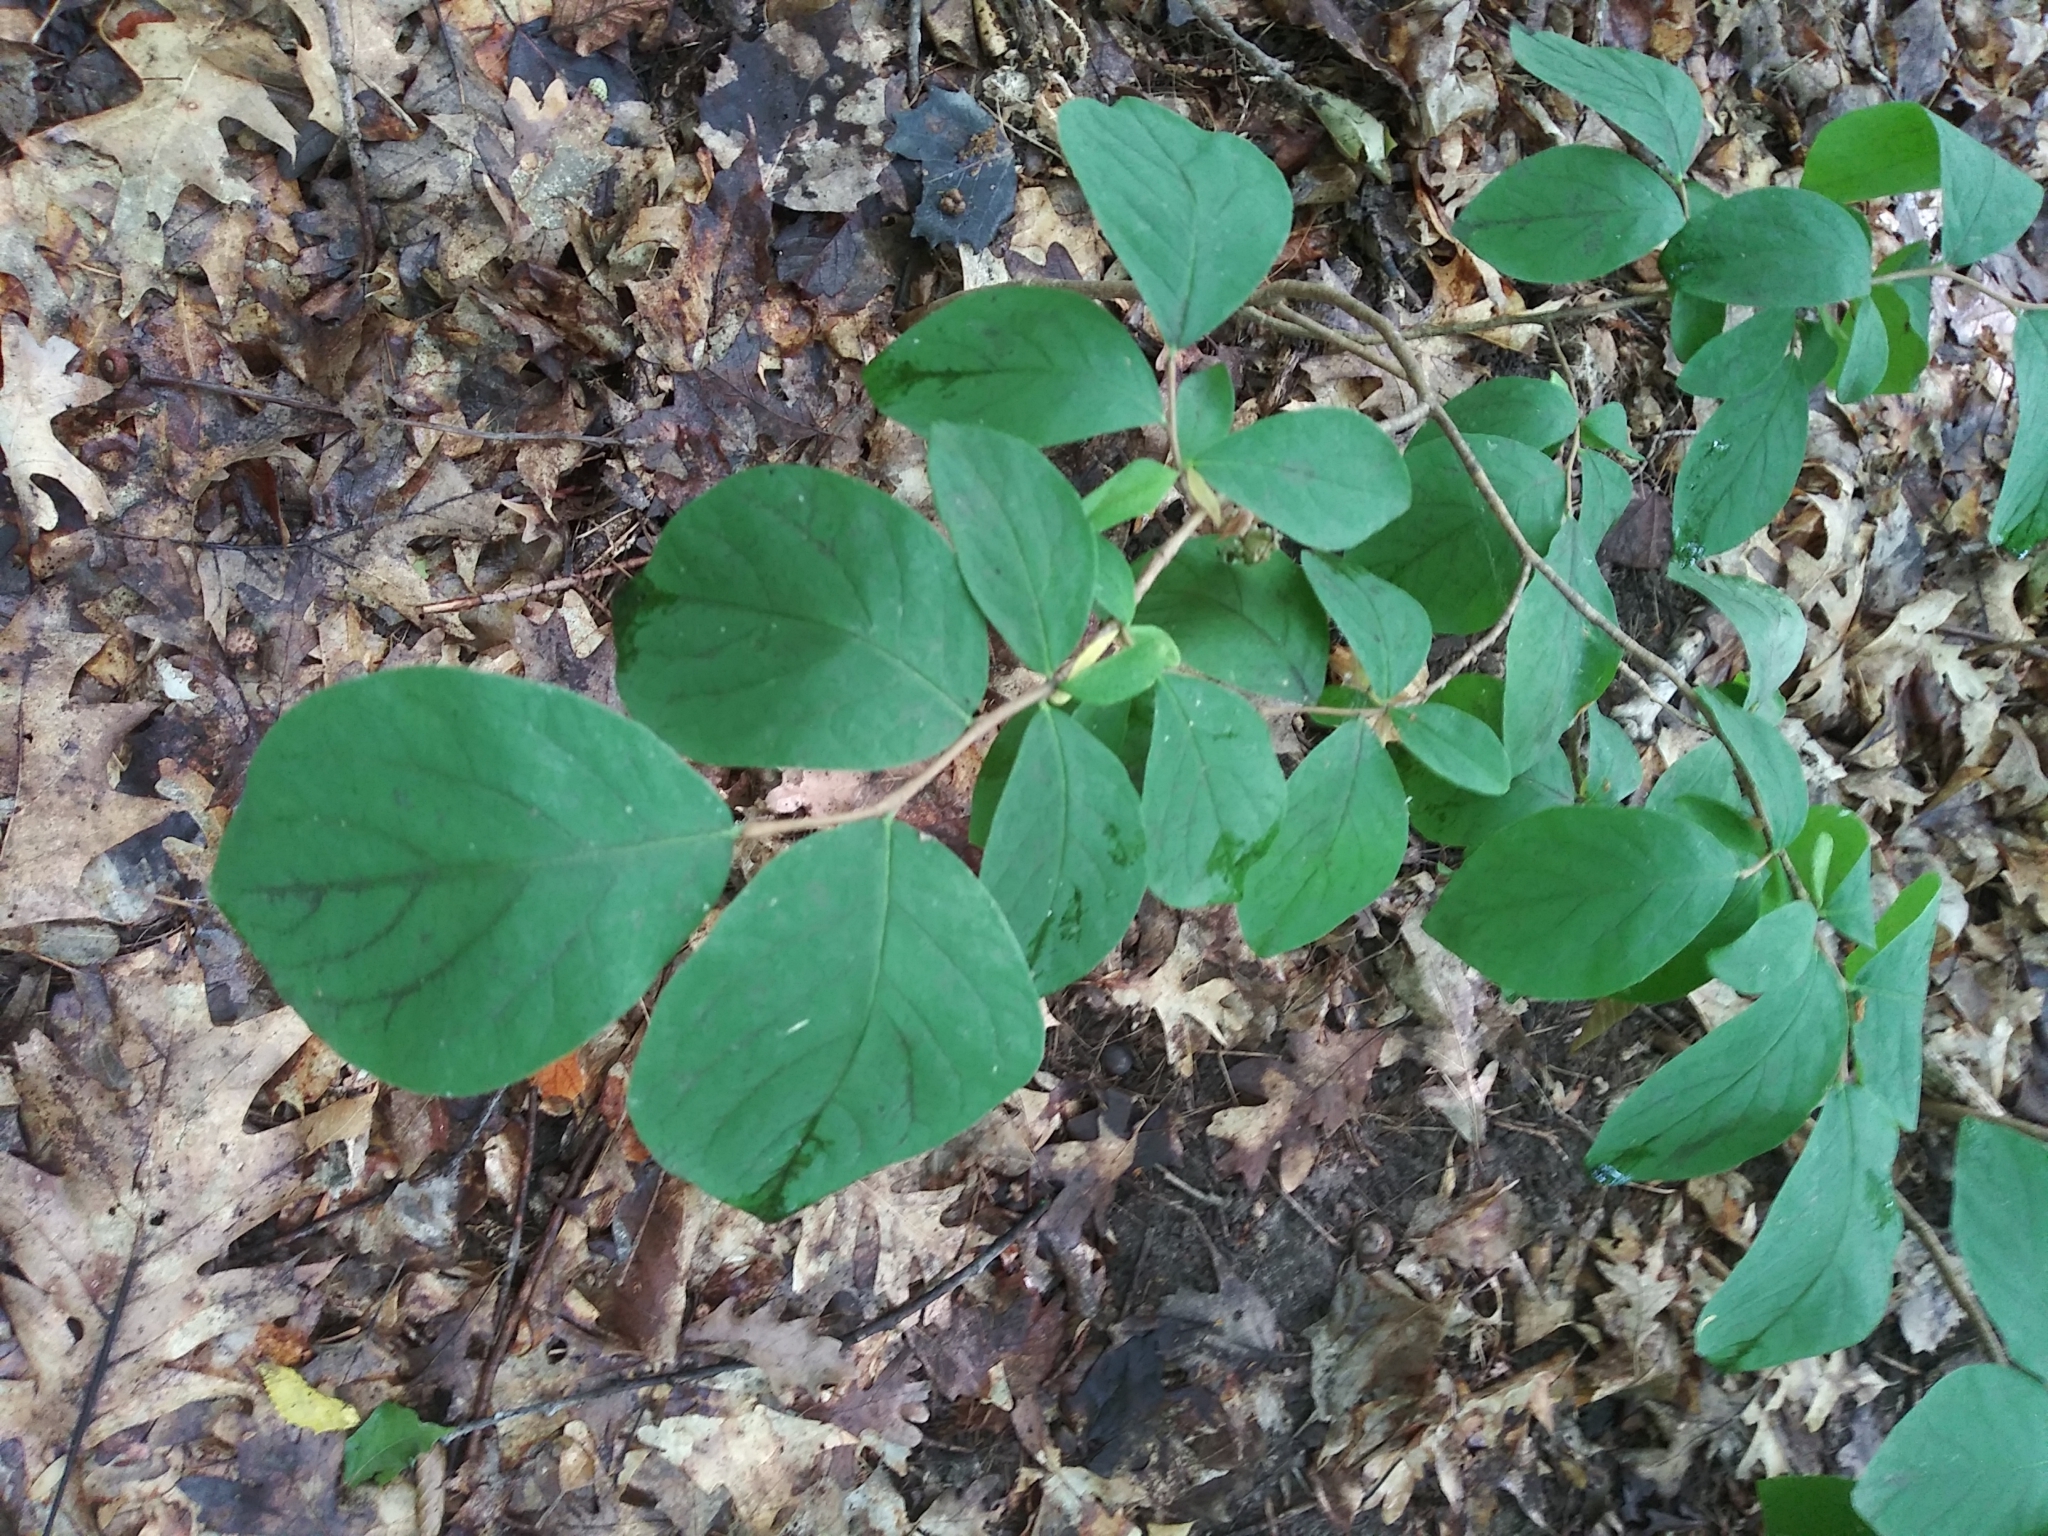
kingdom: Plantae
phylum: Tracheophyta
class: Magnoliopsida
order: Malvales
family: Thymelaeaceae
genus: Dirca
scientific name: Dirca palustris
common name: Leatherwood
